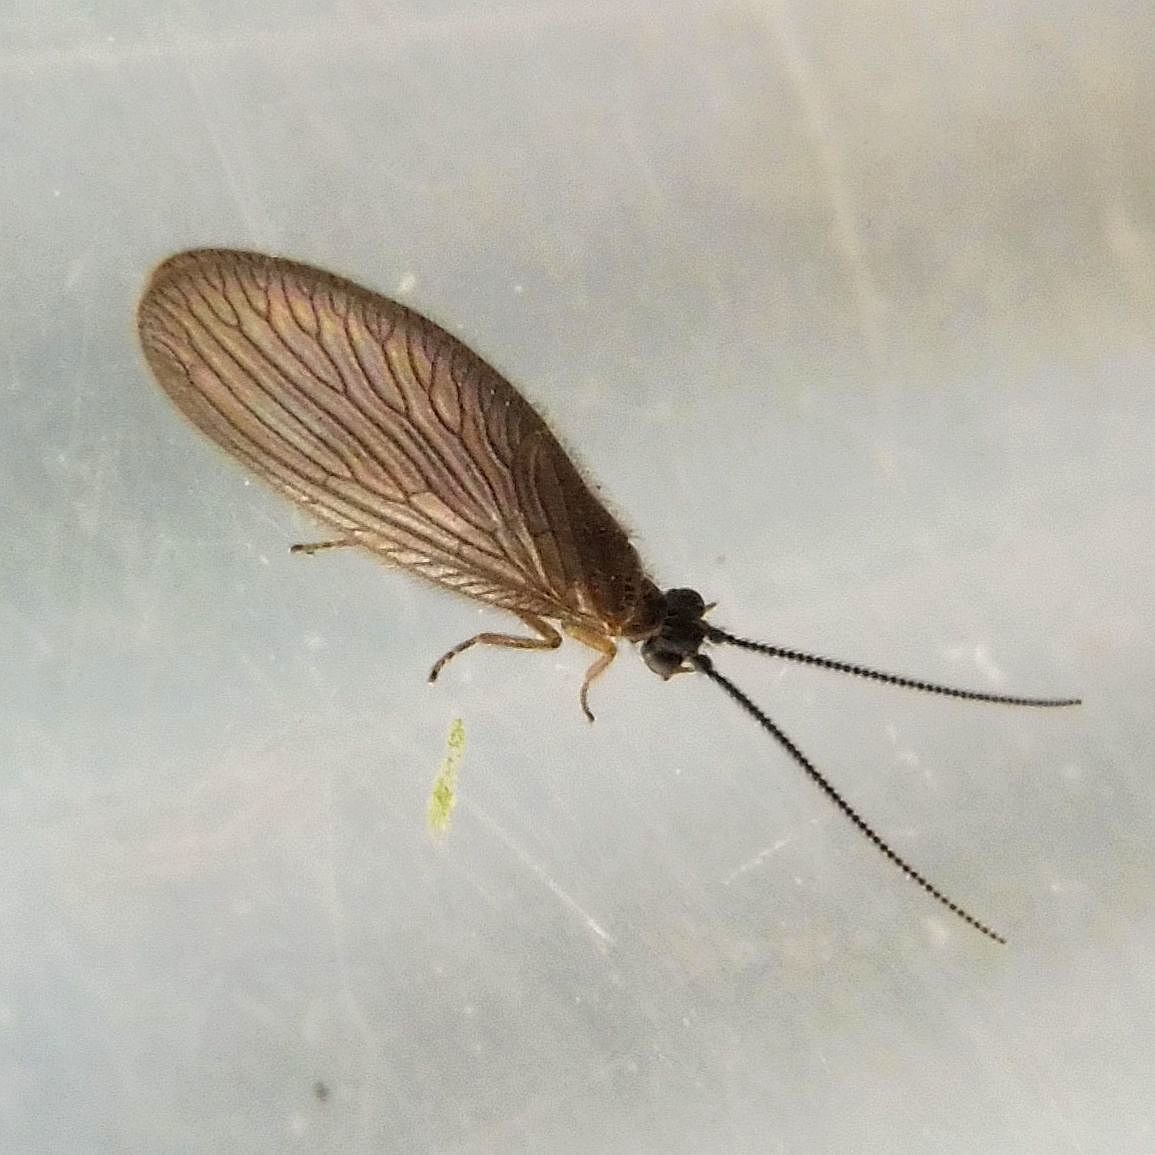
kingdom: Animalia
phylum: Arthropoda
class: Insecta
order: Neuroptera
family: Sisyridae
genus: Sisyra
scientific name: Sisyra nigra
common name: Black spongillafly
